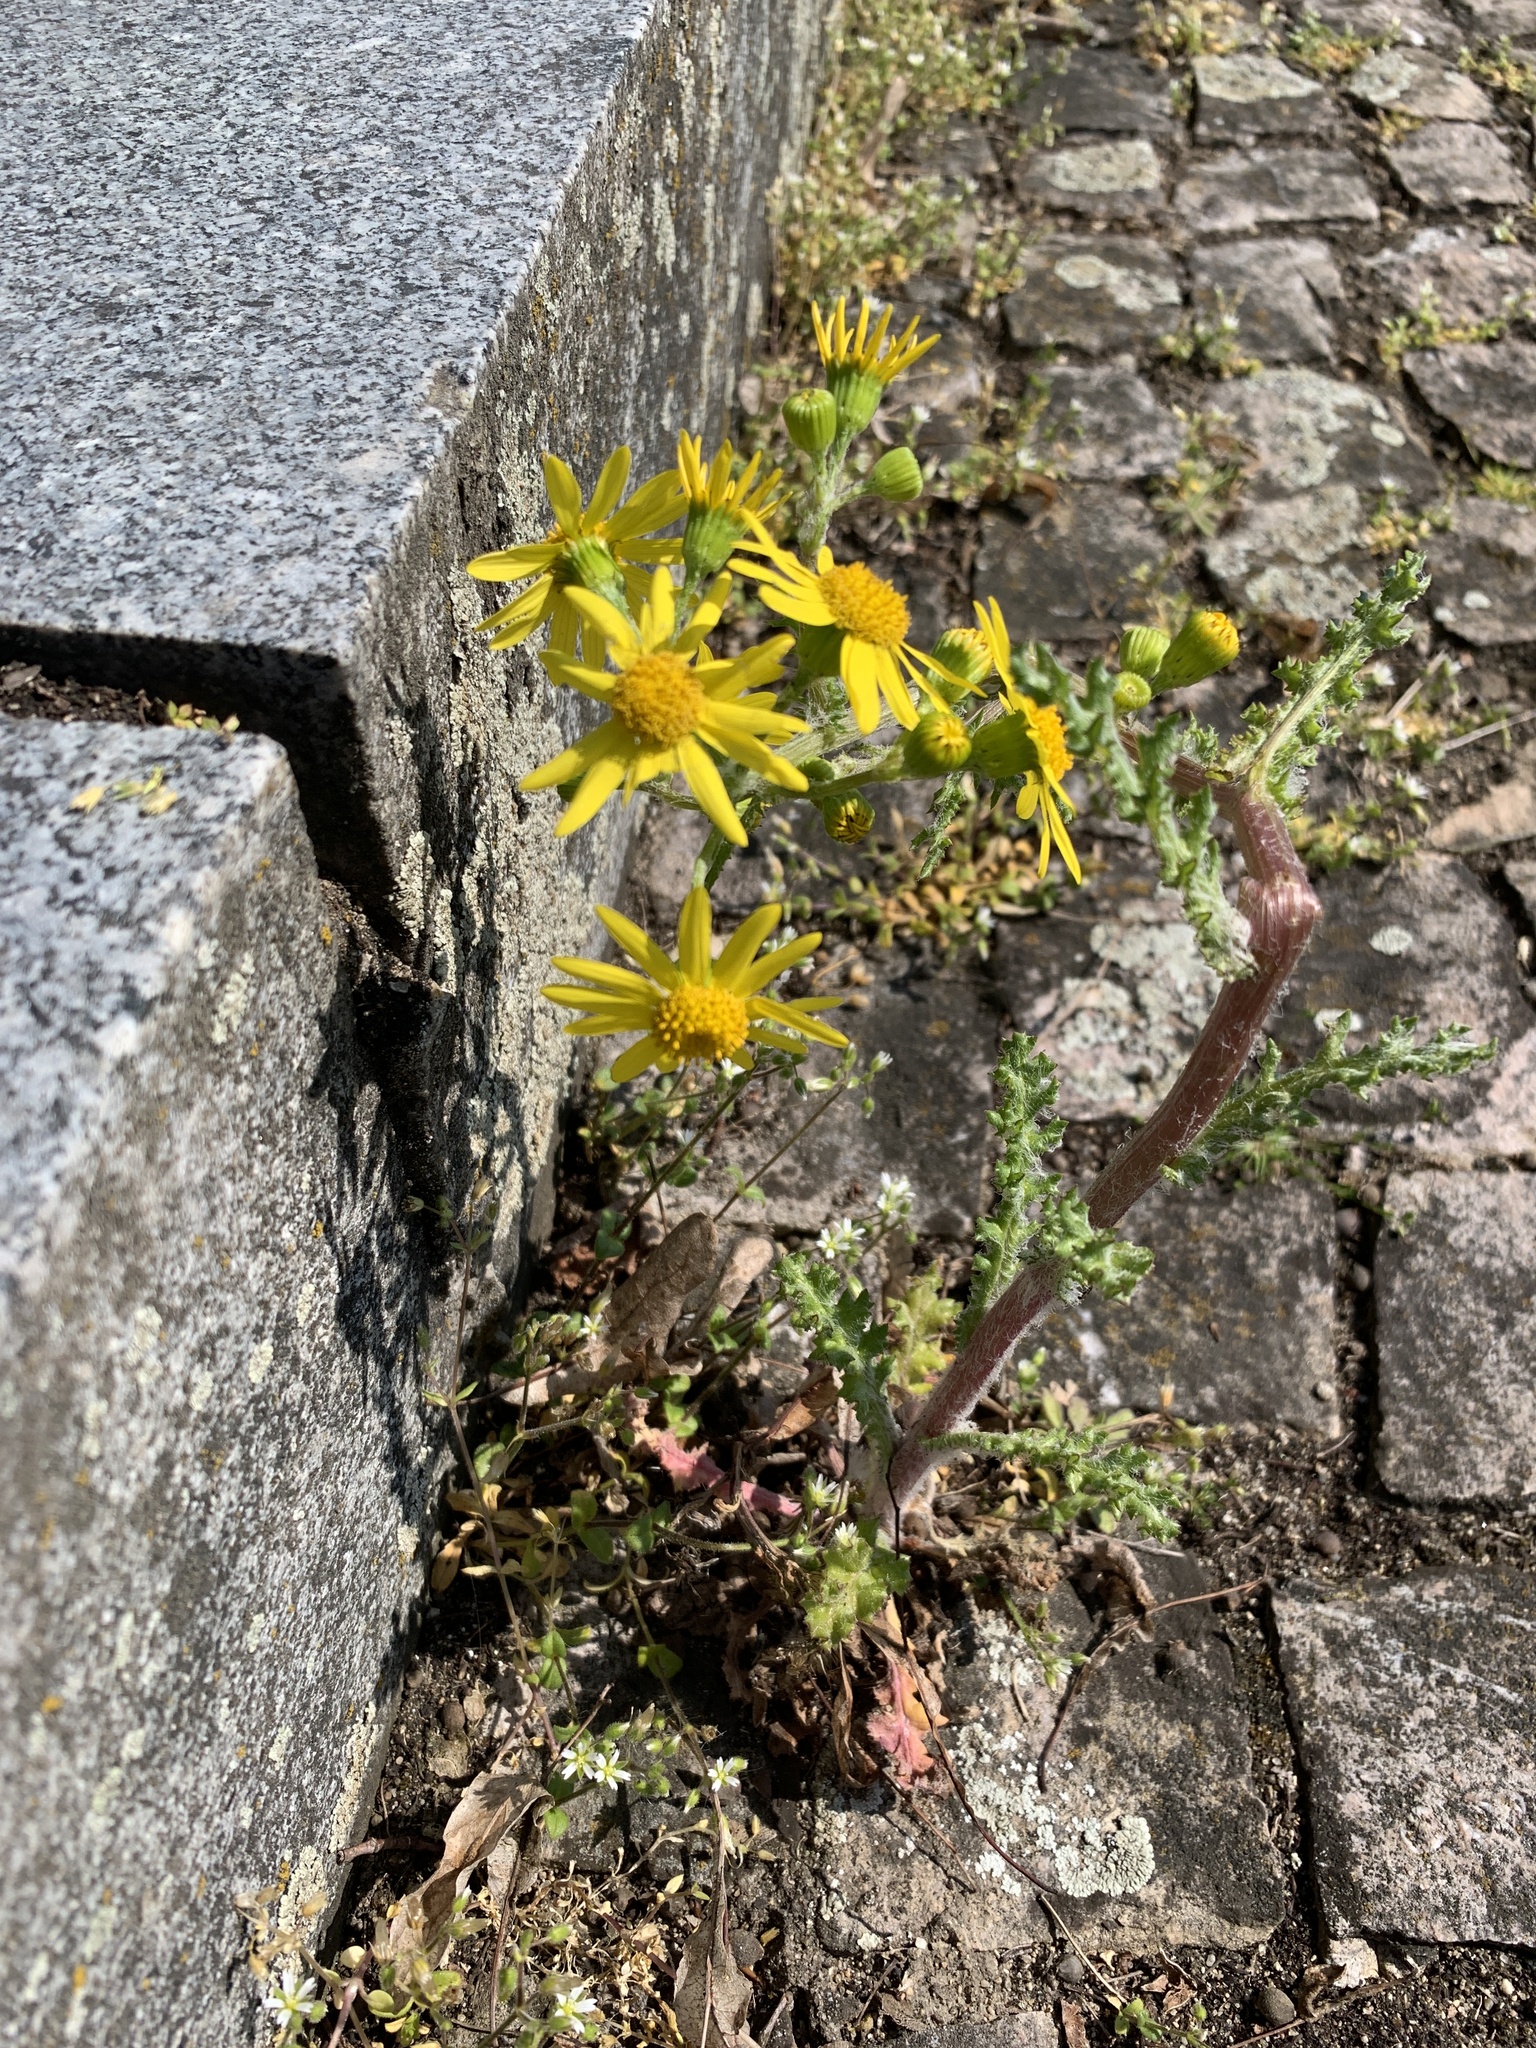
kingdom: Plantae
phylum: Tracheophyta
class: Magnoliopsida
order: Asterales
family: Asteraceae
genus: Senecio
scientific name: Senecio vernalis
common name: Eastern groundsel
